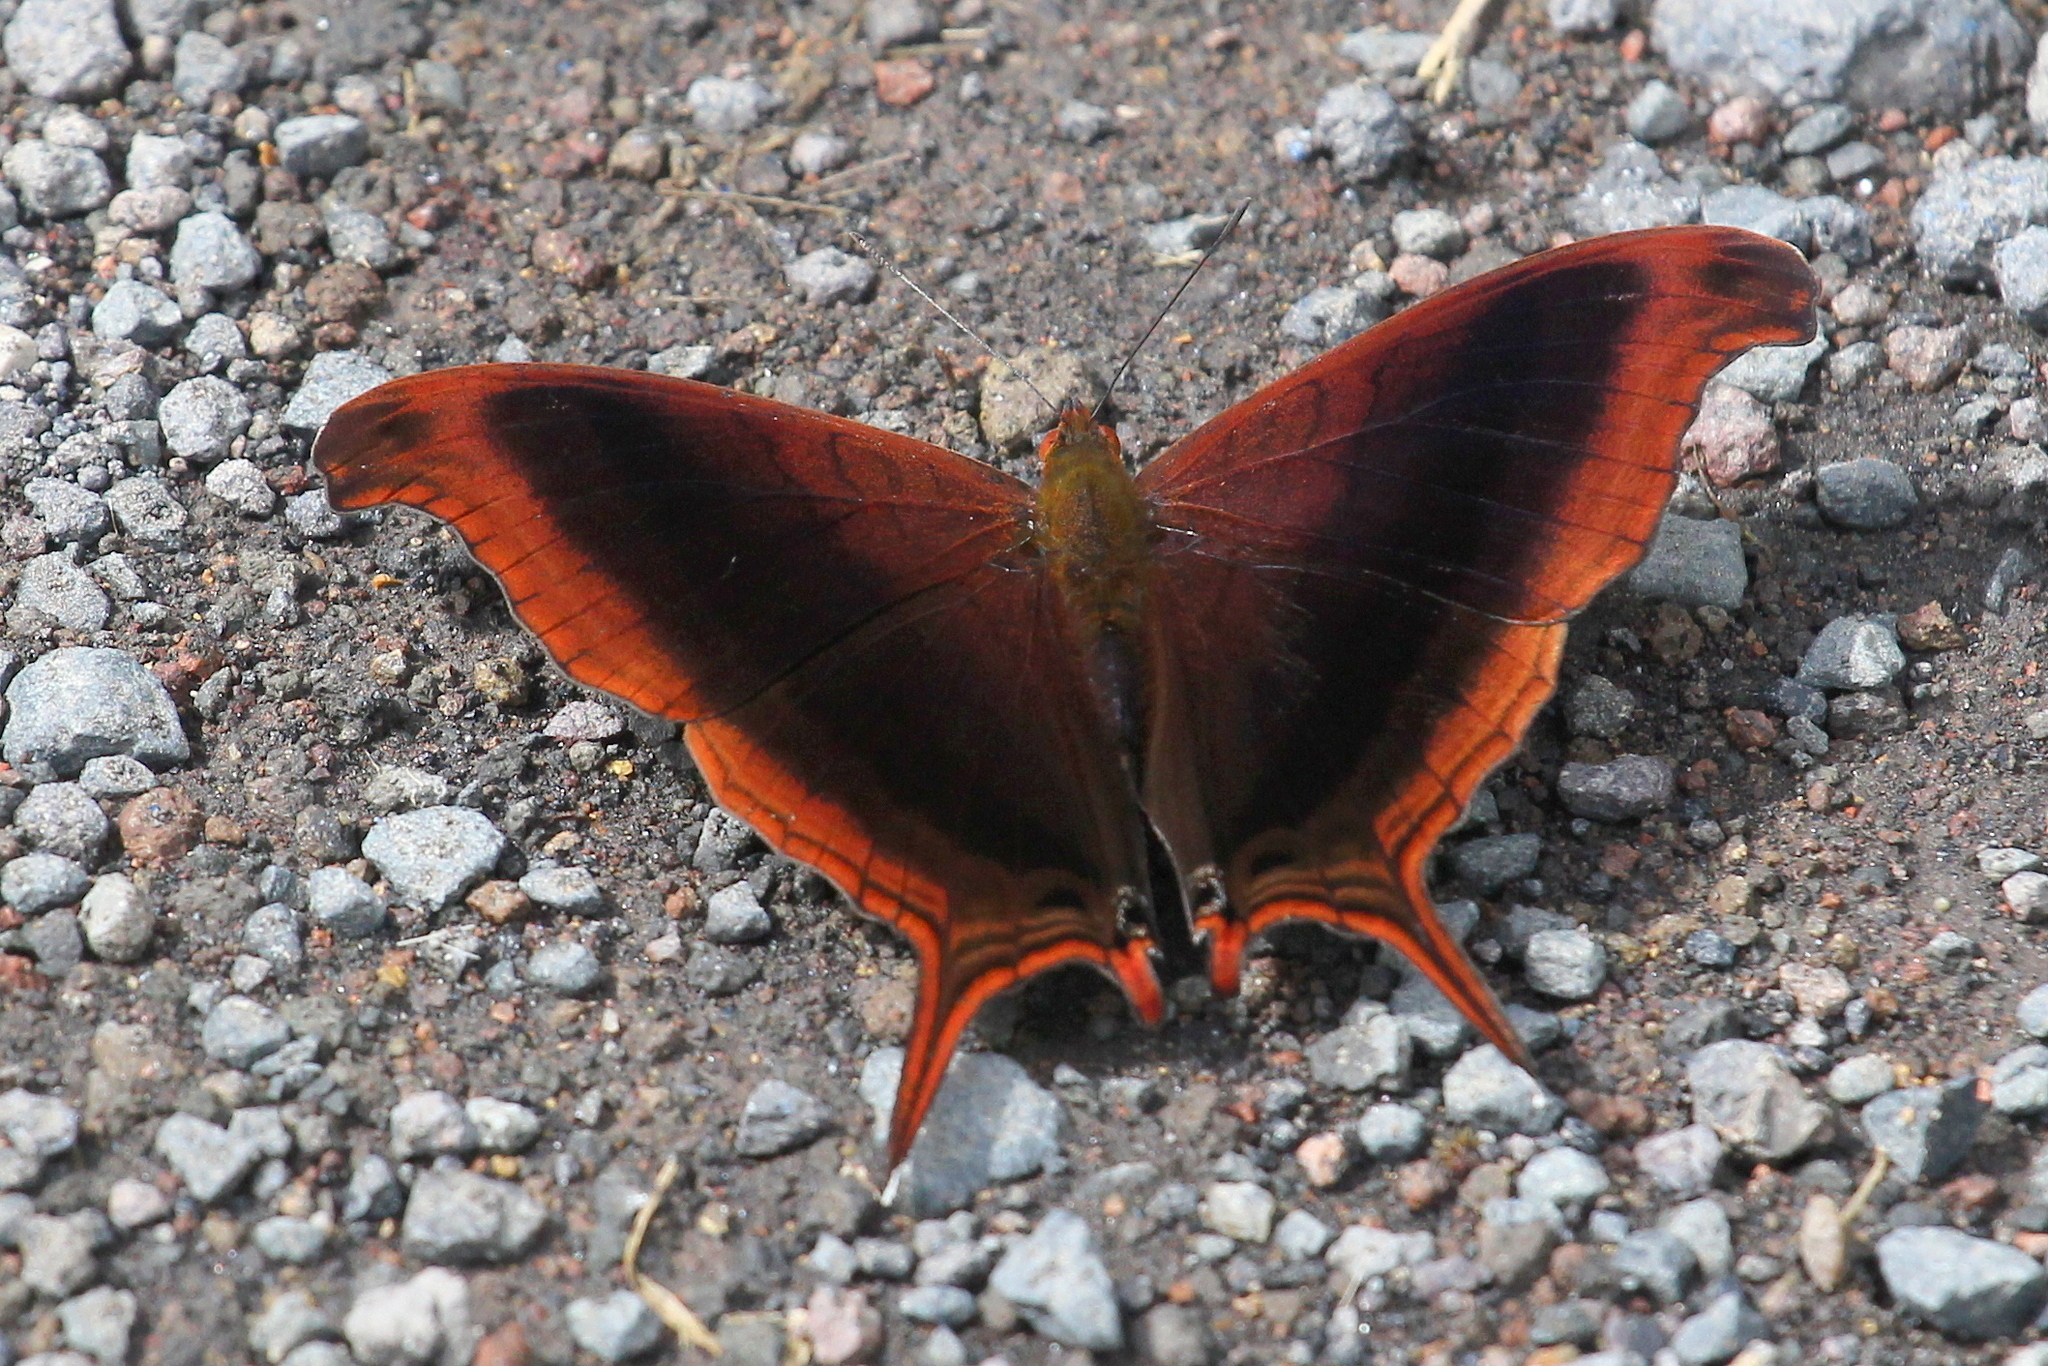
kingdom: Animalia
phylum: Arthropoda
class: Insecta
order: Lepidoptera
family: Nymphalidae
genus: Marpesia
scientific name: Marpesia zerynthia
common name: Waiter daggerwing
